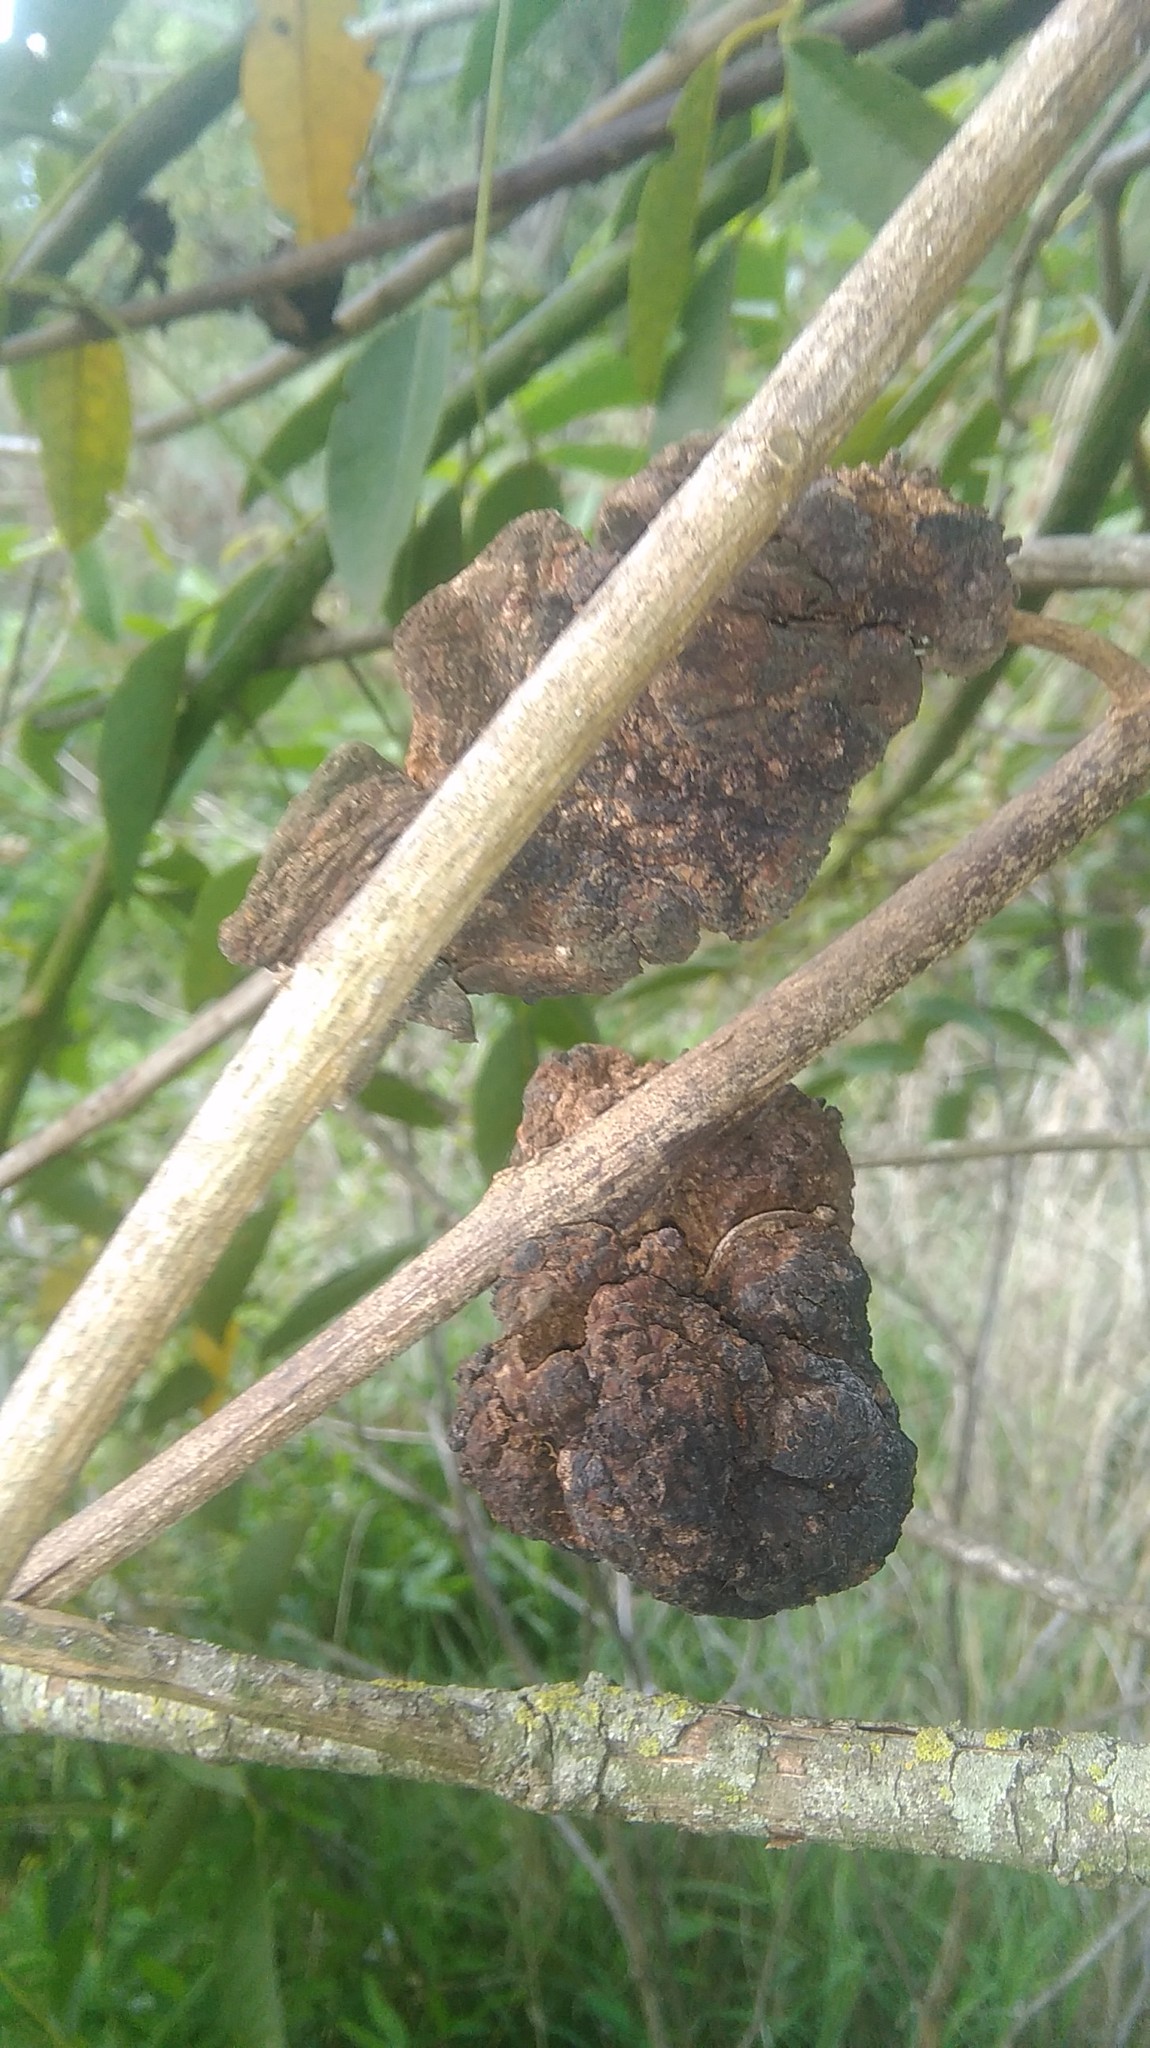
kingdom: Fungi
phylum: Basidiomycota
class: Pucciniomycetes
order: Pucciniales
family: Raveneliaceae
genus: Ravenelia
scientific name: Ravenelia platensis
